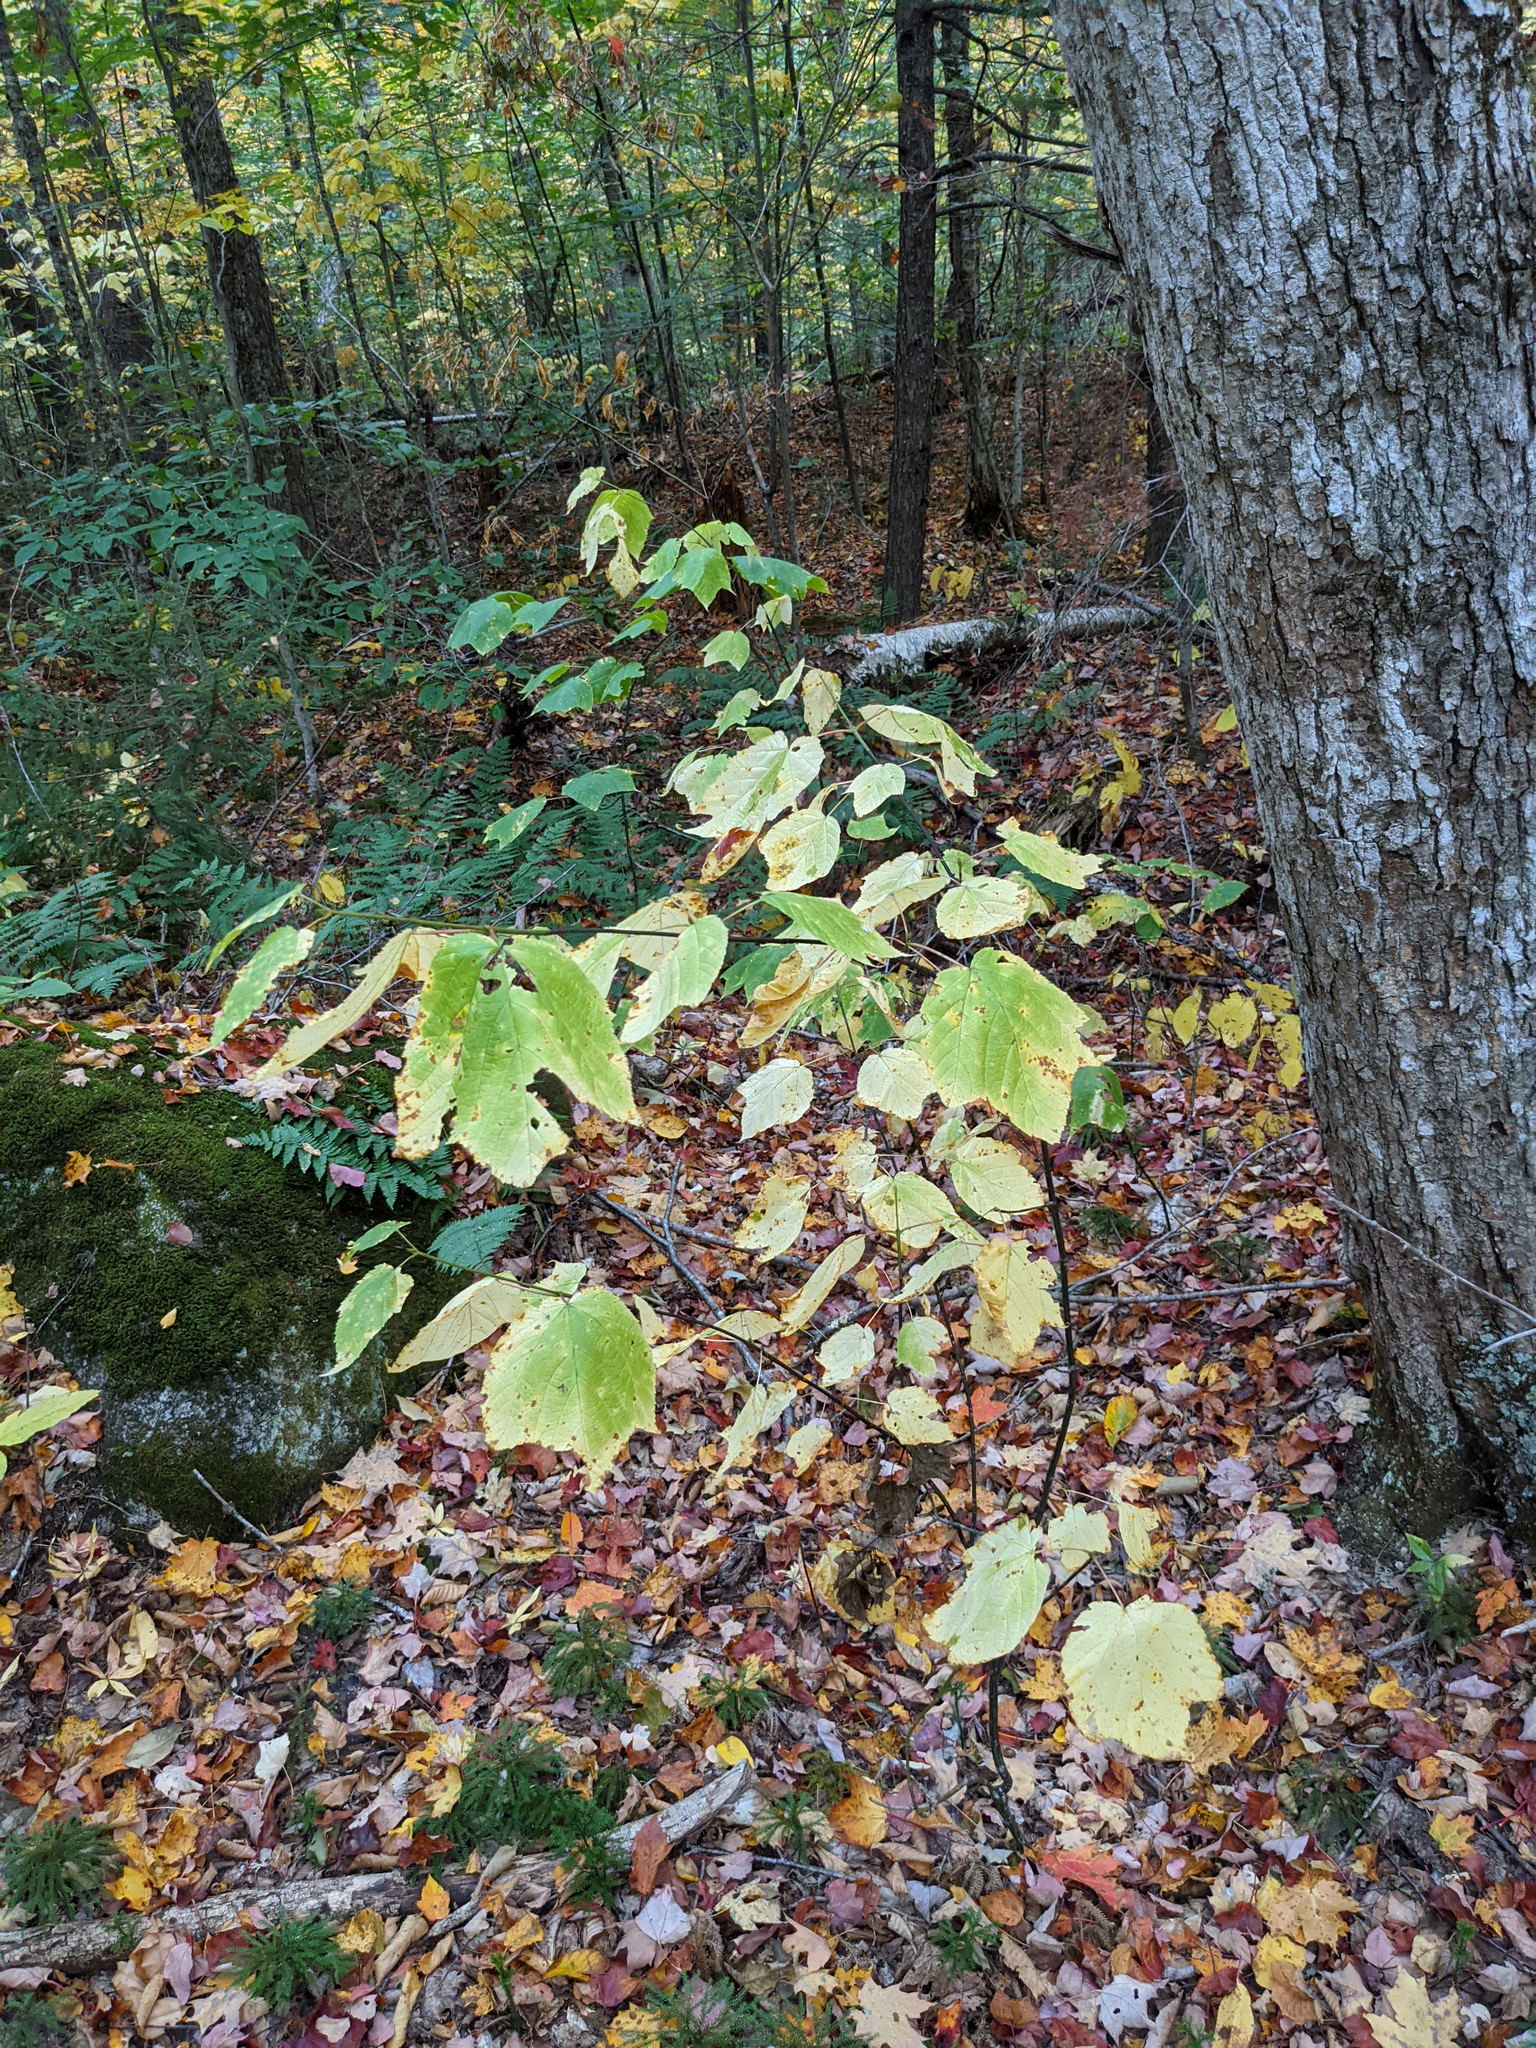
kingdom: Plantae
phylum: Tracheophyta
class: Magnoliopsida
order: Sapindales
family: Sapindaceae
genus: Acer
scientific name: Acer pensylvanicum
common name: Moosewood
